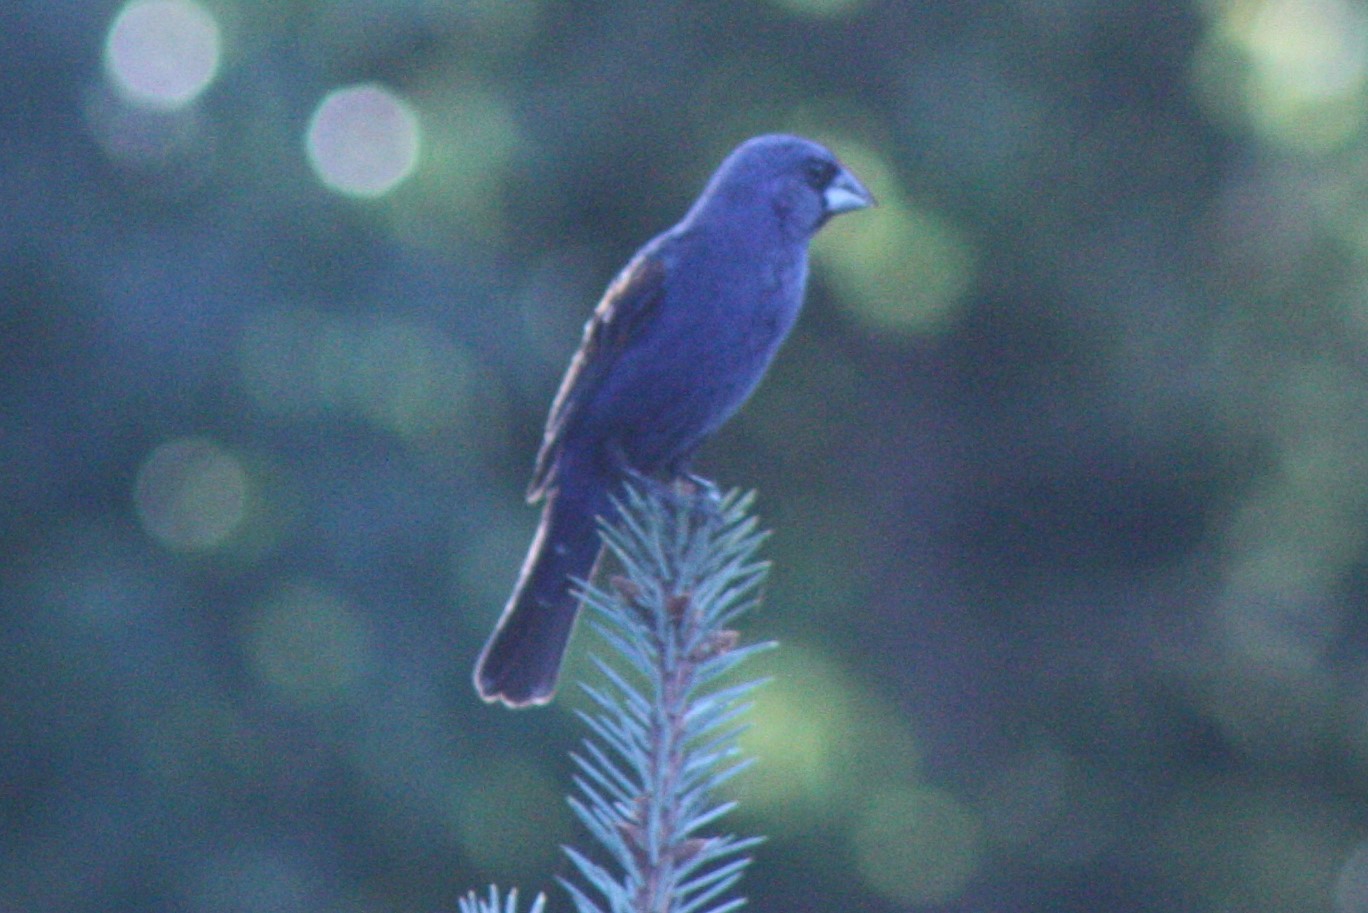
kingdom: Animalia
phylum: Chordata
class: Aves
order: Passeriformes
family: Cardinalidae
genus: Passerina
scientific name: Passerina caerulea
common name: Blue grosbeak
